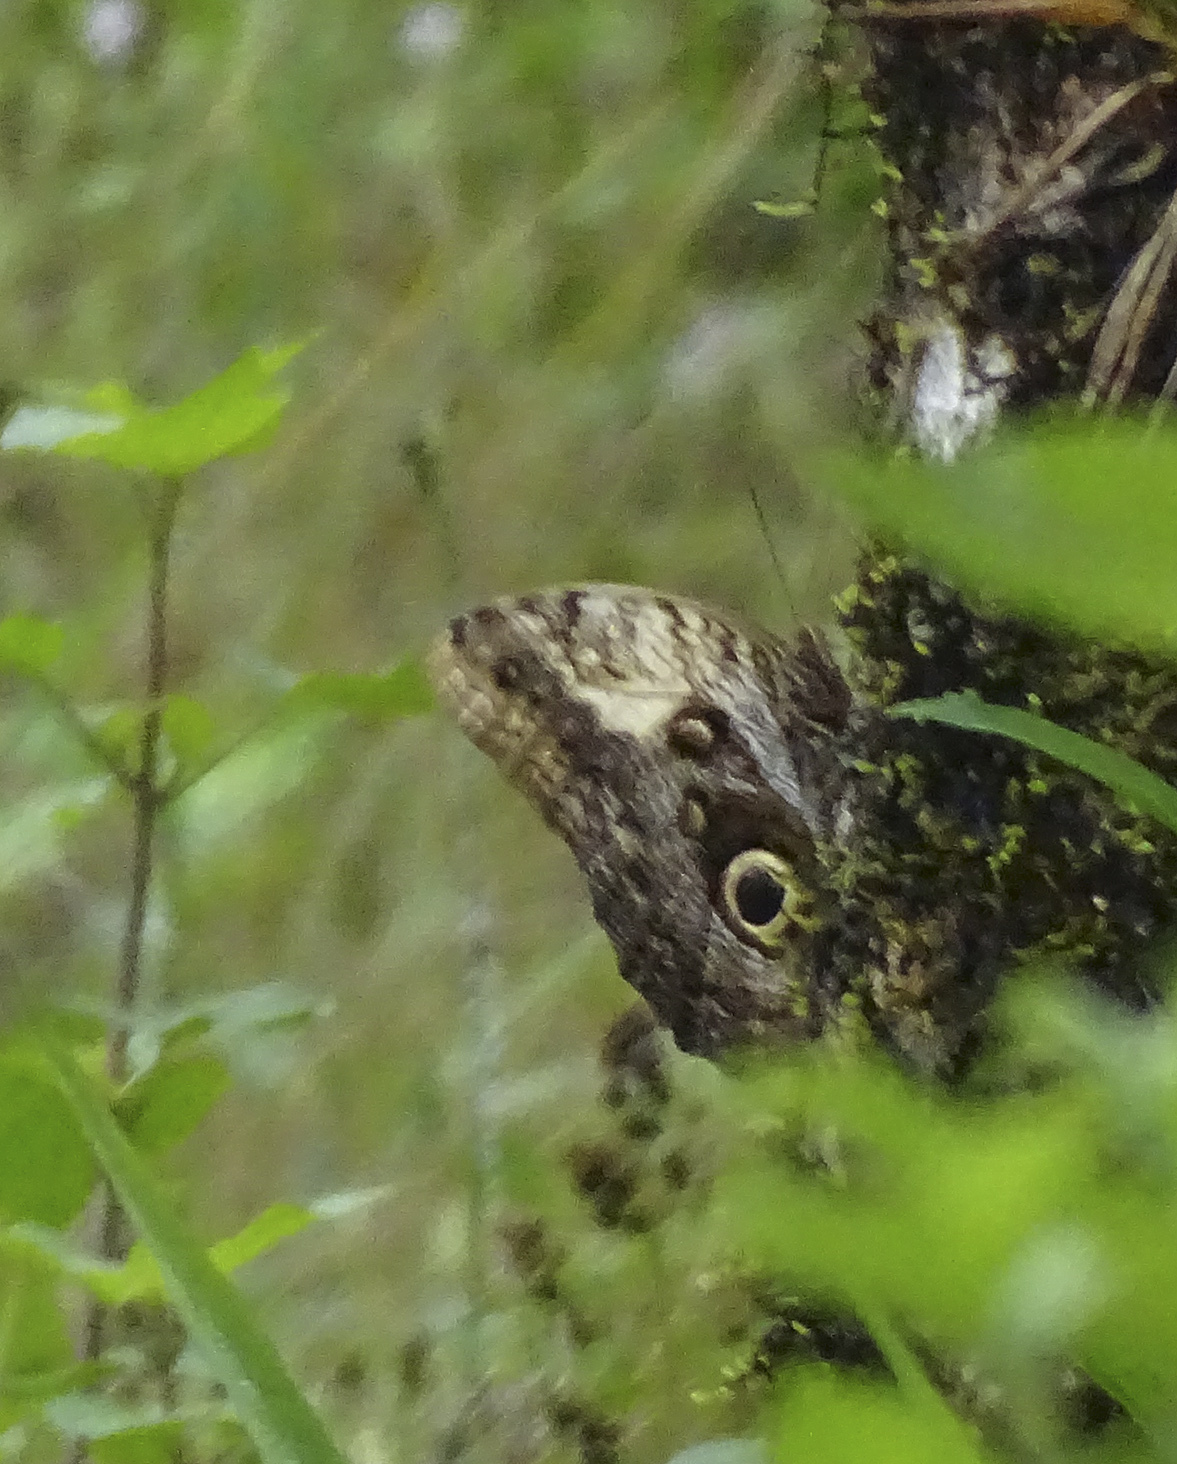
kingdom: Animalia
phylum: Arthropoda
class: Insecta
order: Lepidoptera
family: Nymphalidae
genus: Caligo
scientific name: Caligo telamonius
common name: Pale owl-butterfly
